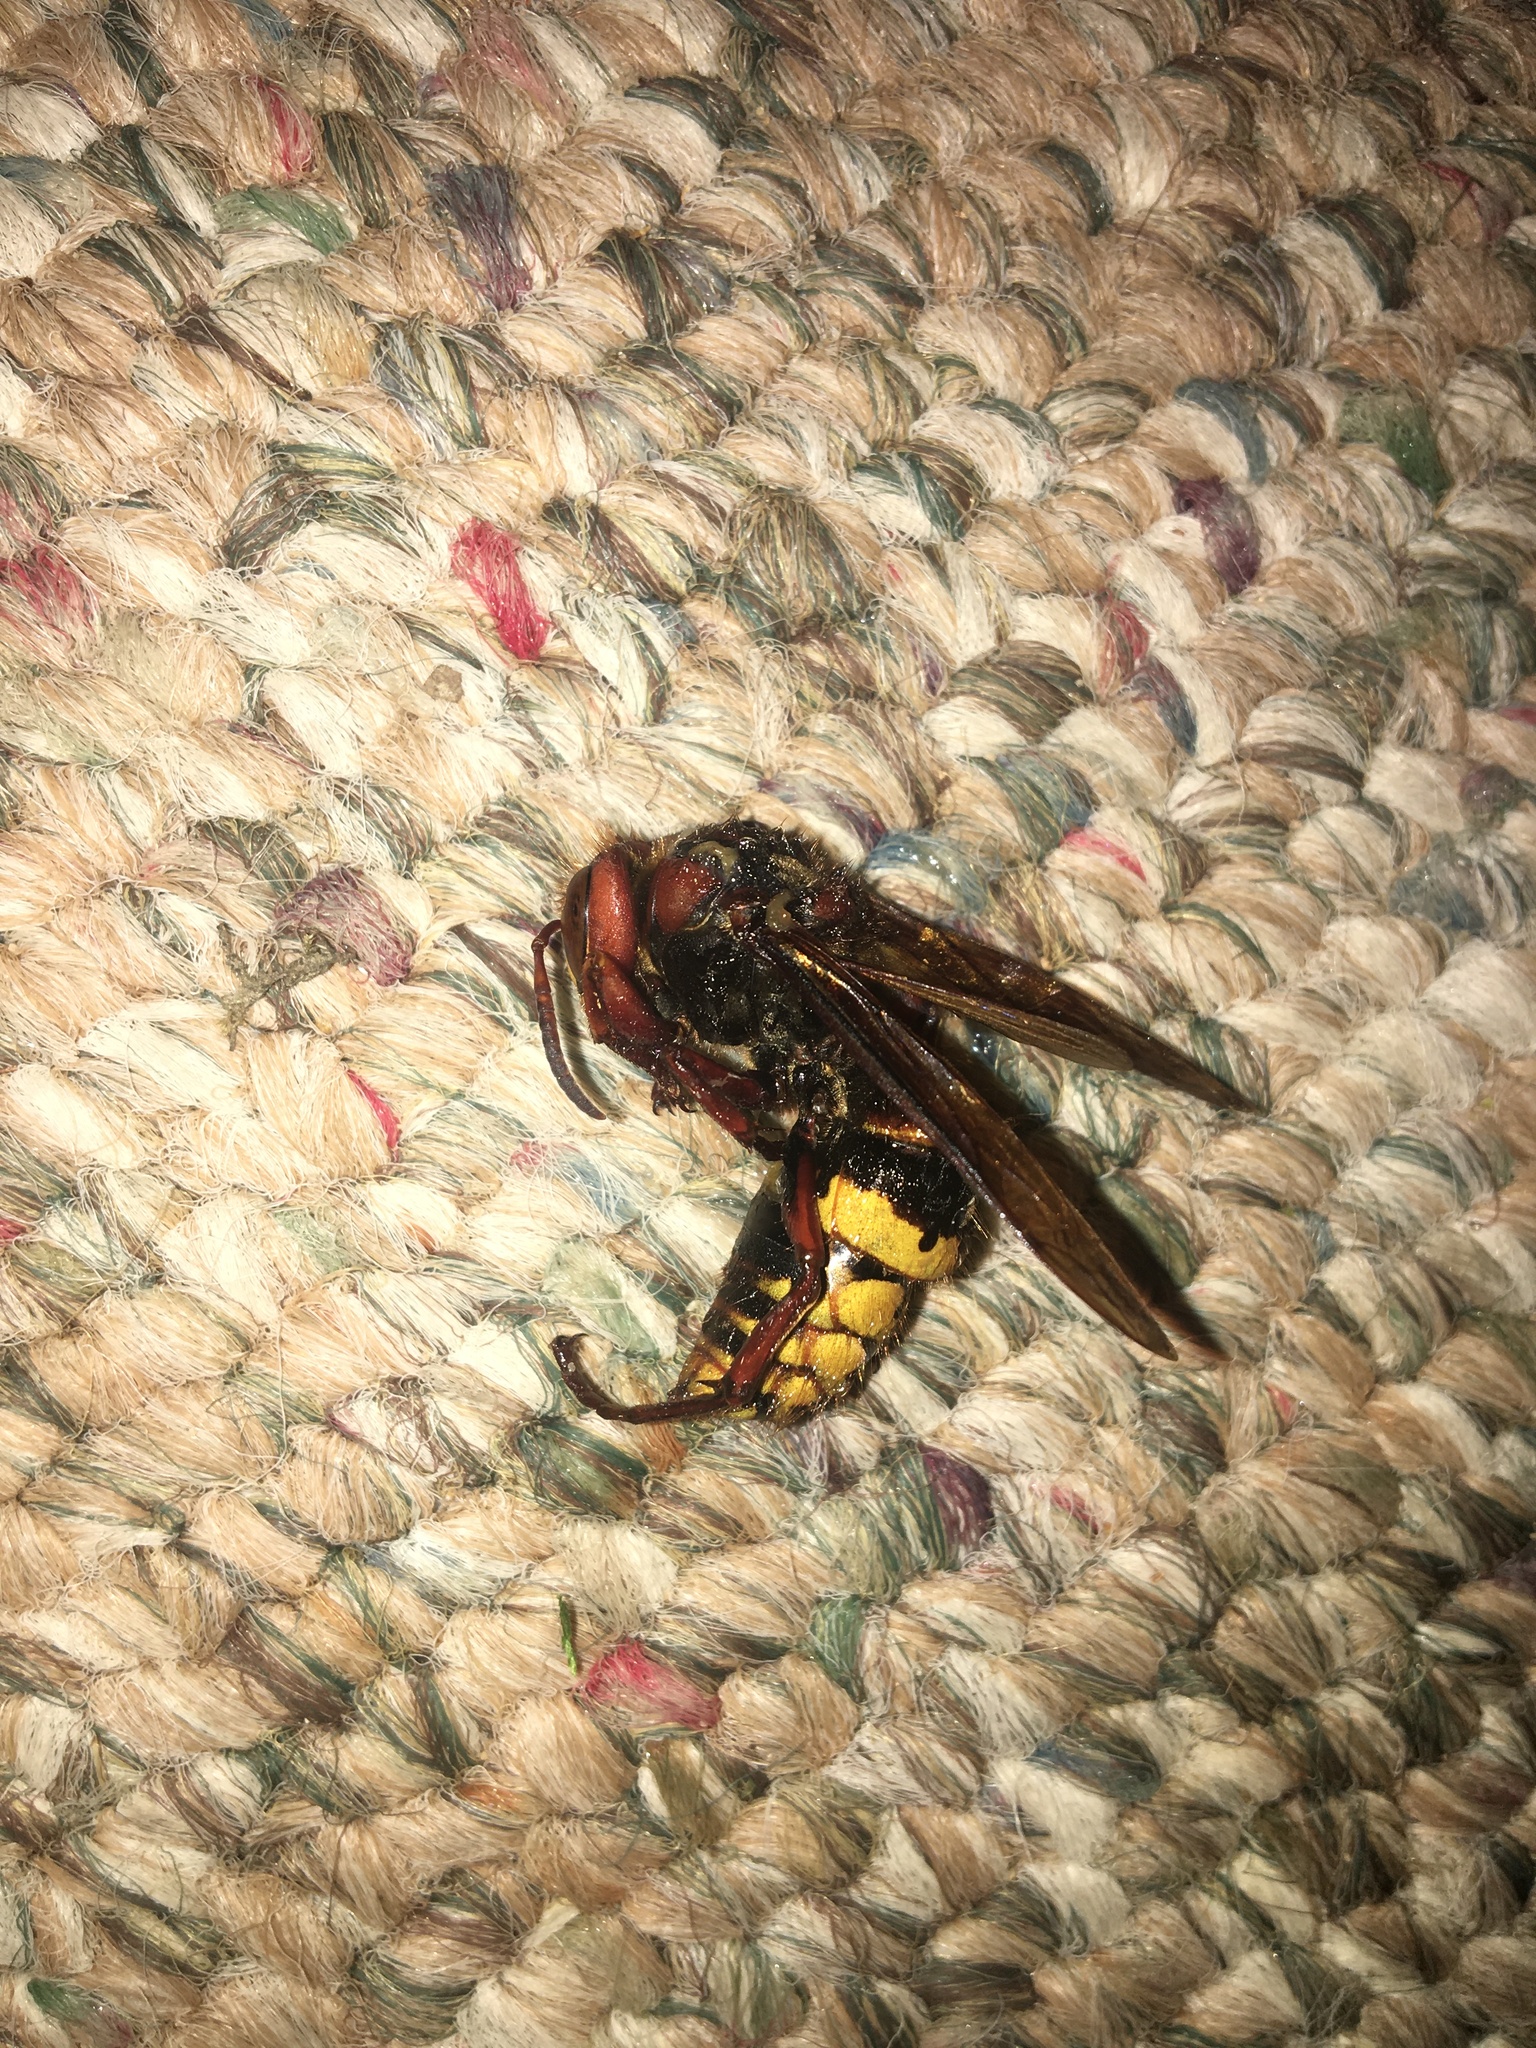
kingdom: Animalia
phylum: Arthropoda
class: Insecta
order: Hymenoptera
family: Vespidae
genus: Vespa
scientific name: Vespa crabro
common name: Hornet
